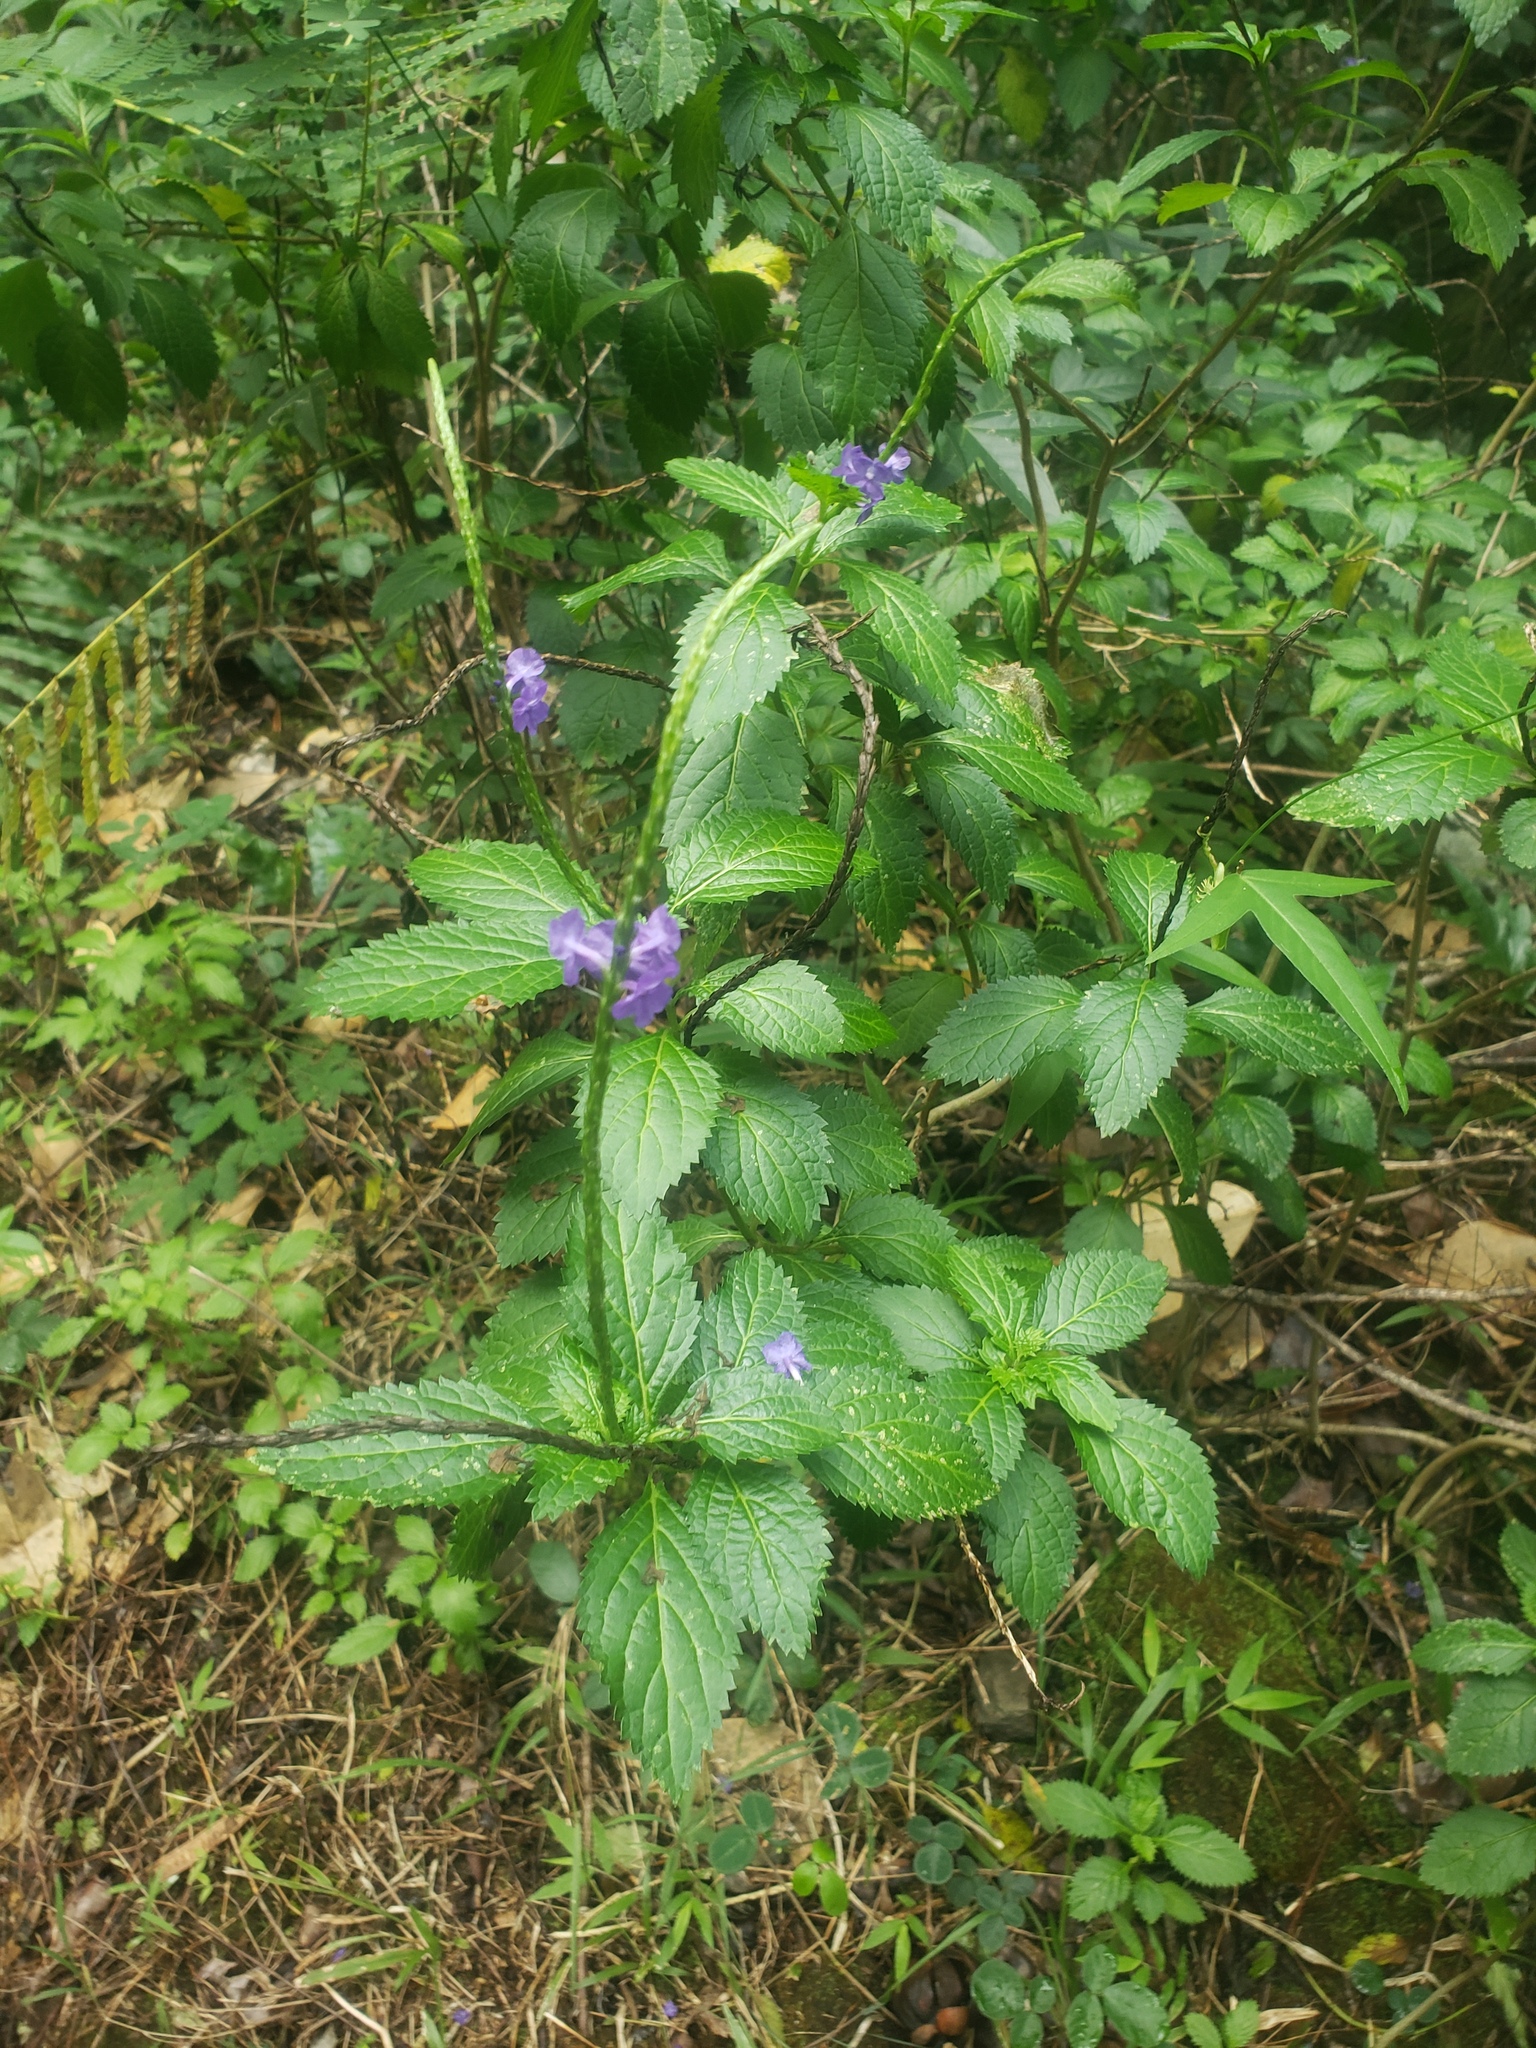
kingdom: Plantae
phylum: Tracheophyta
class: Magnoliopsida
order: Lamiales
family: Verbenaceae
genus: Stachytarpheta
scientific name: Stachytarpheta cayennensis
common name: Cayenne porterweed
